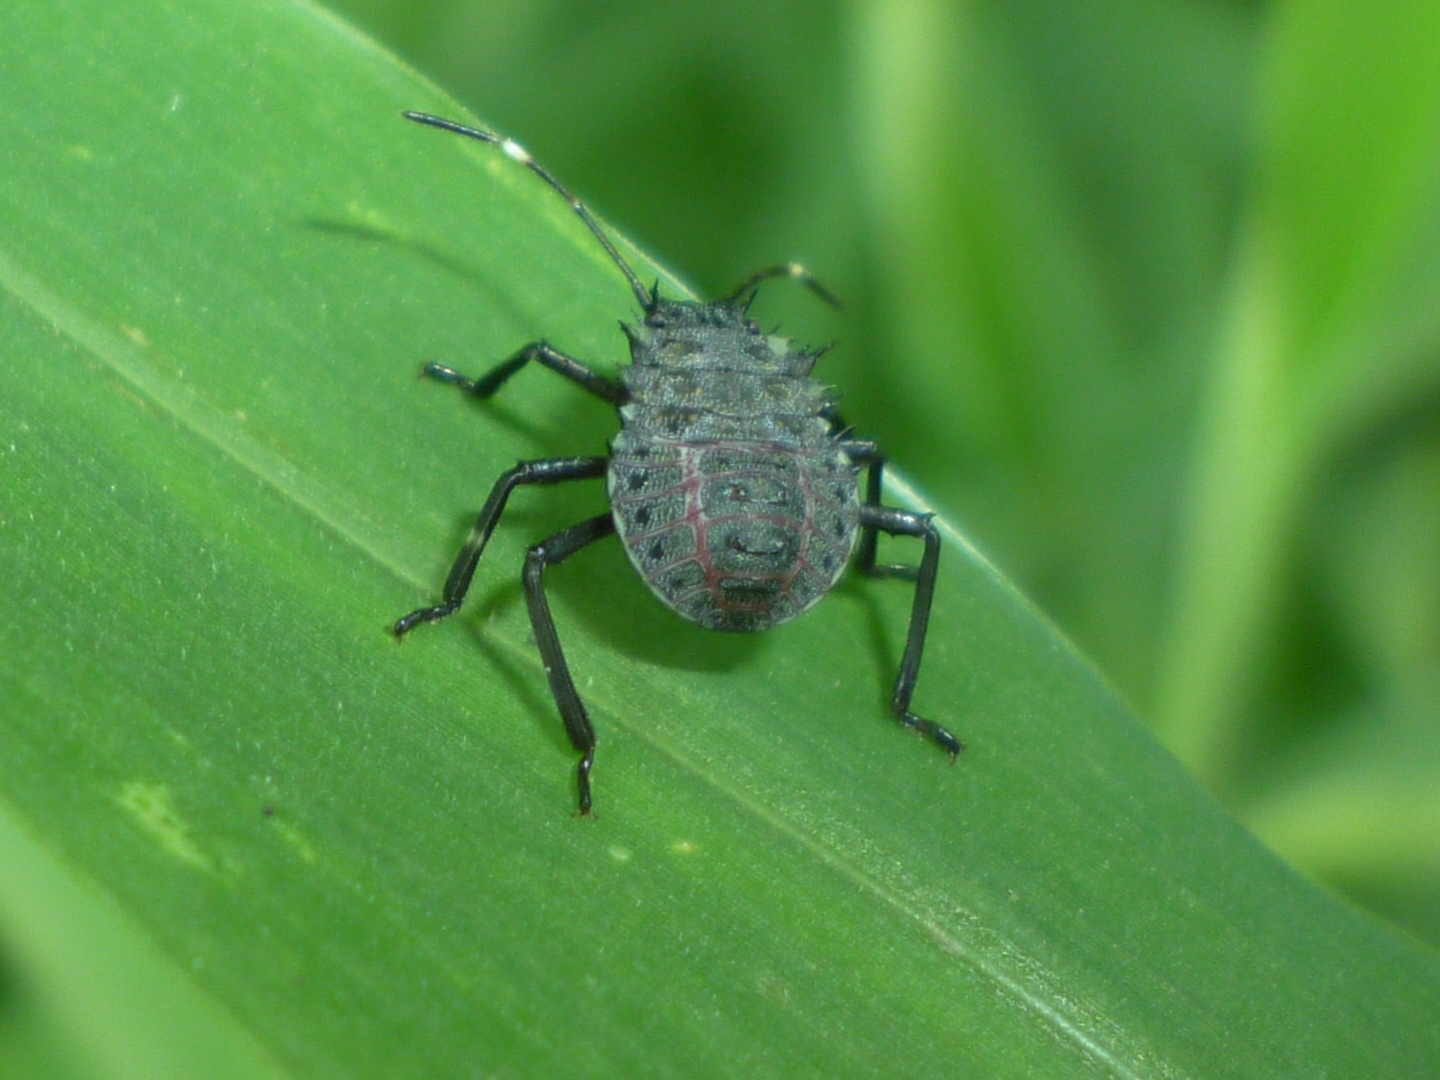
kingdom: Animalia
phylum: Arthropoda
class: Insecta
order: Hemiptera
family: Pentatomidae
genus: Halyomorpha
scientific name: Halyomorpha halys
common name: Brown marmorated stink bug
